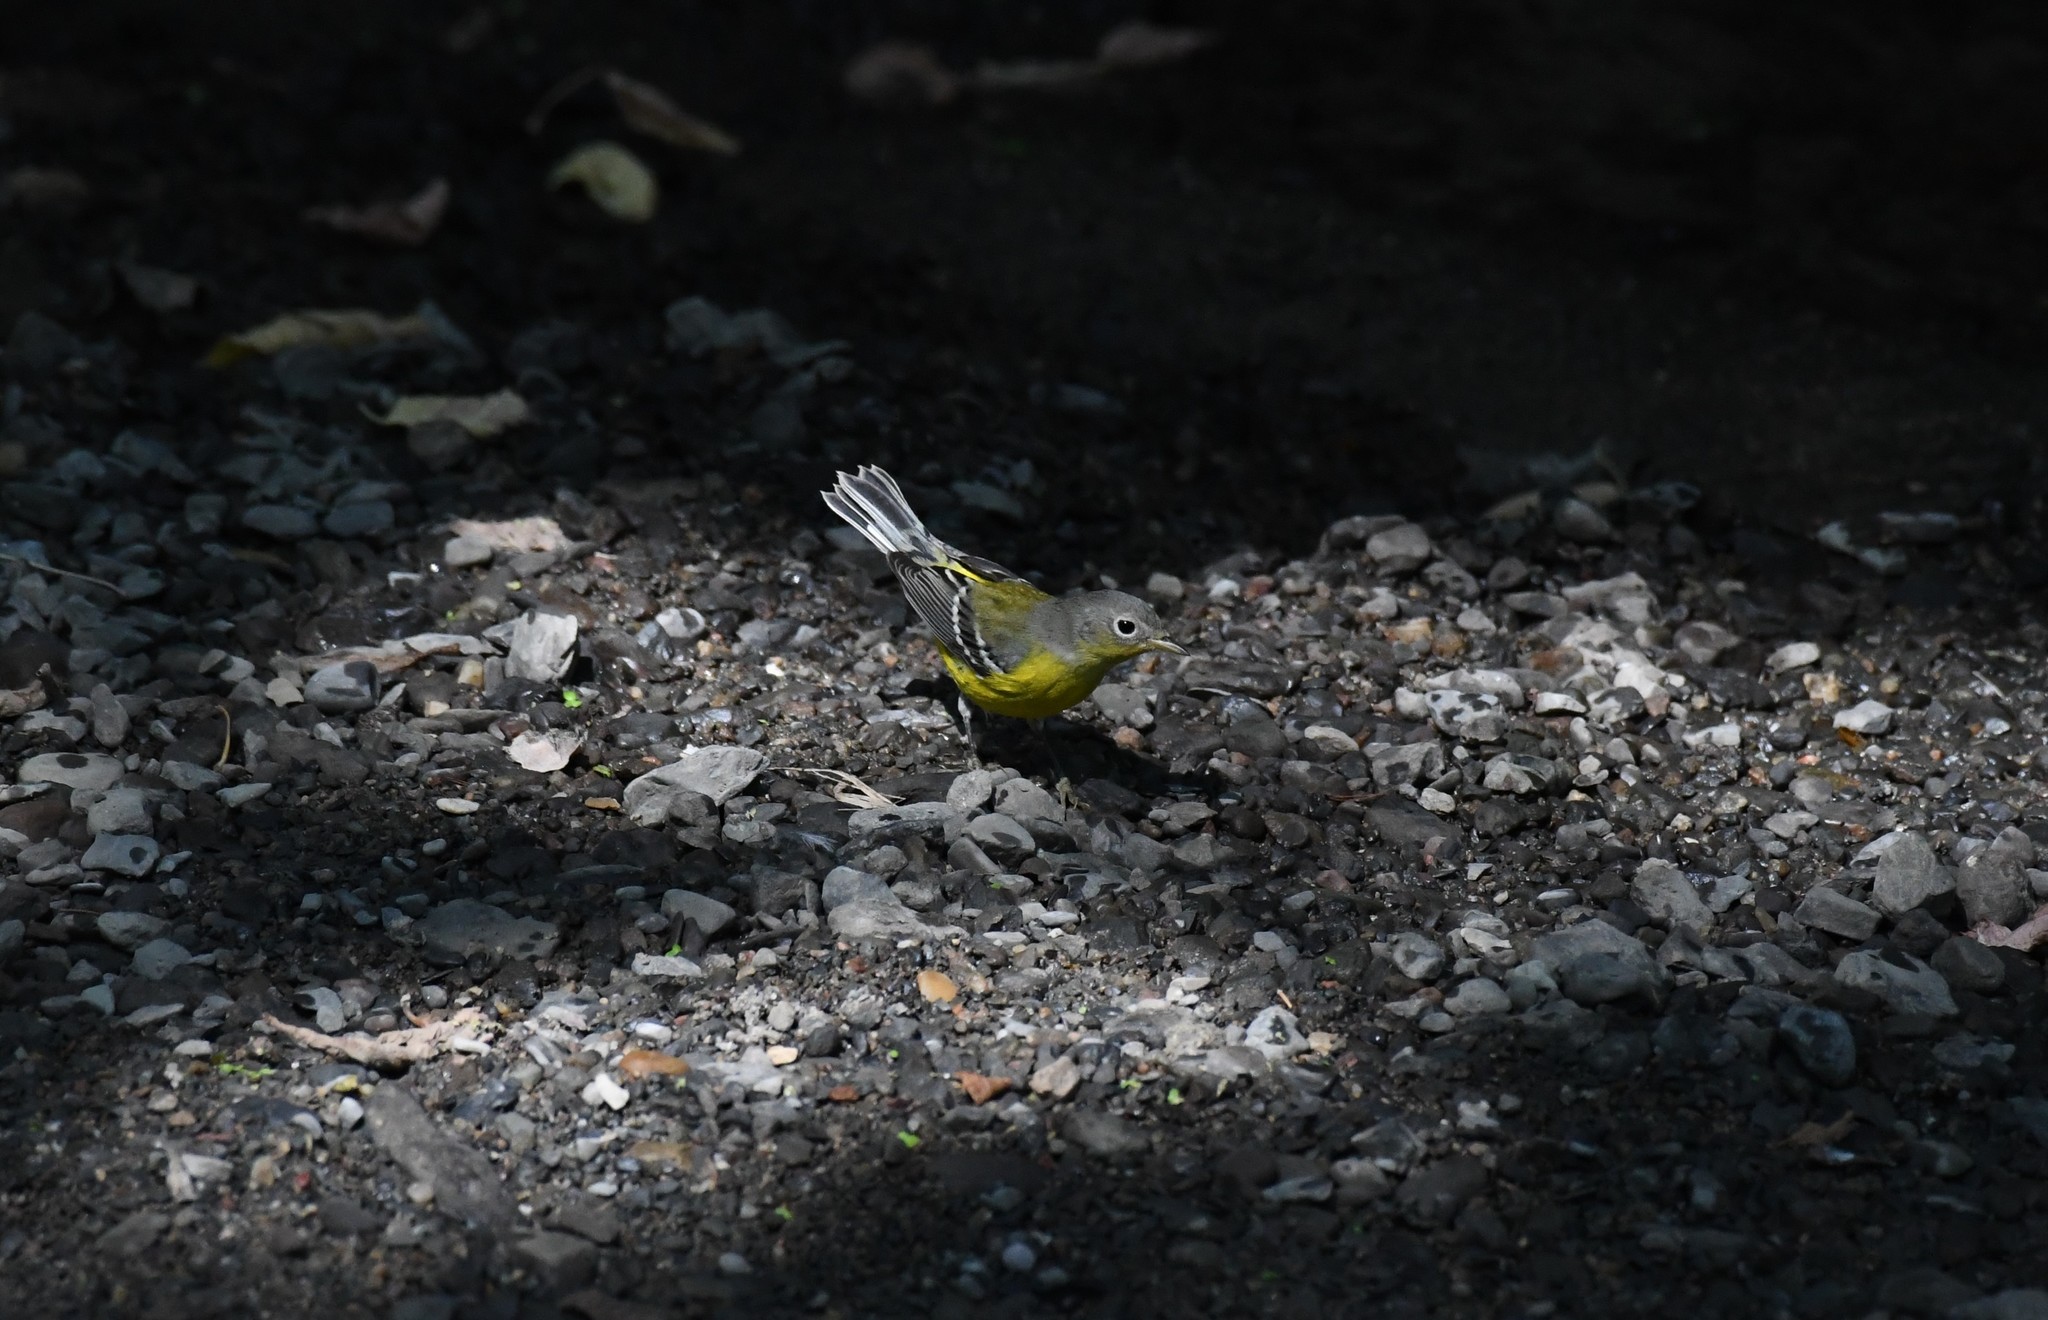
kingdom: Animalia
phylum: Chordata
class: Aves
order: Passeriformes
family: Parulidae
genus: Setophaga
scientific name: Setophaga magnolia
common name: Magnolia warbler
